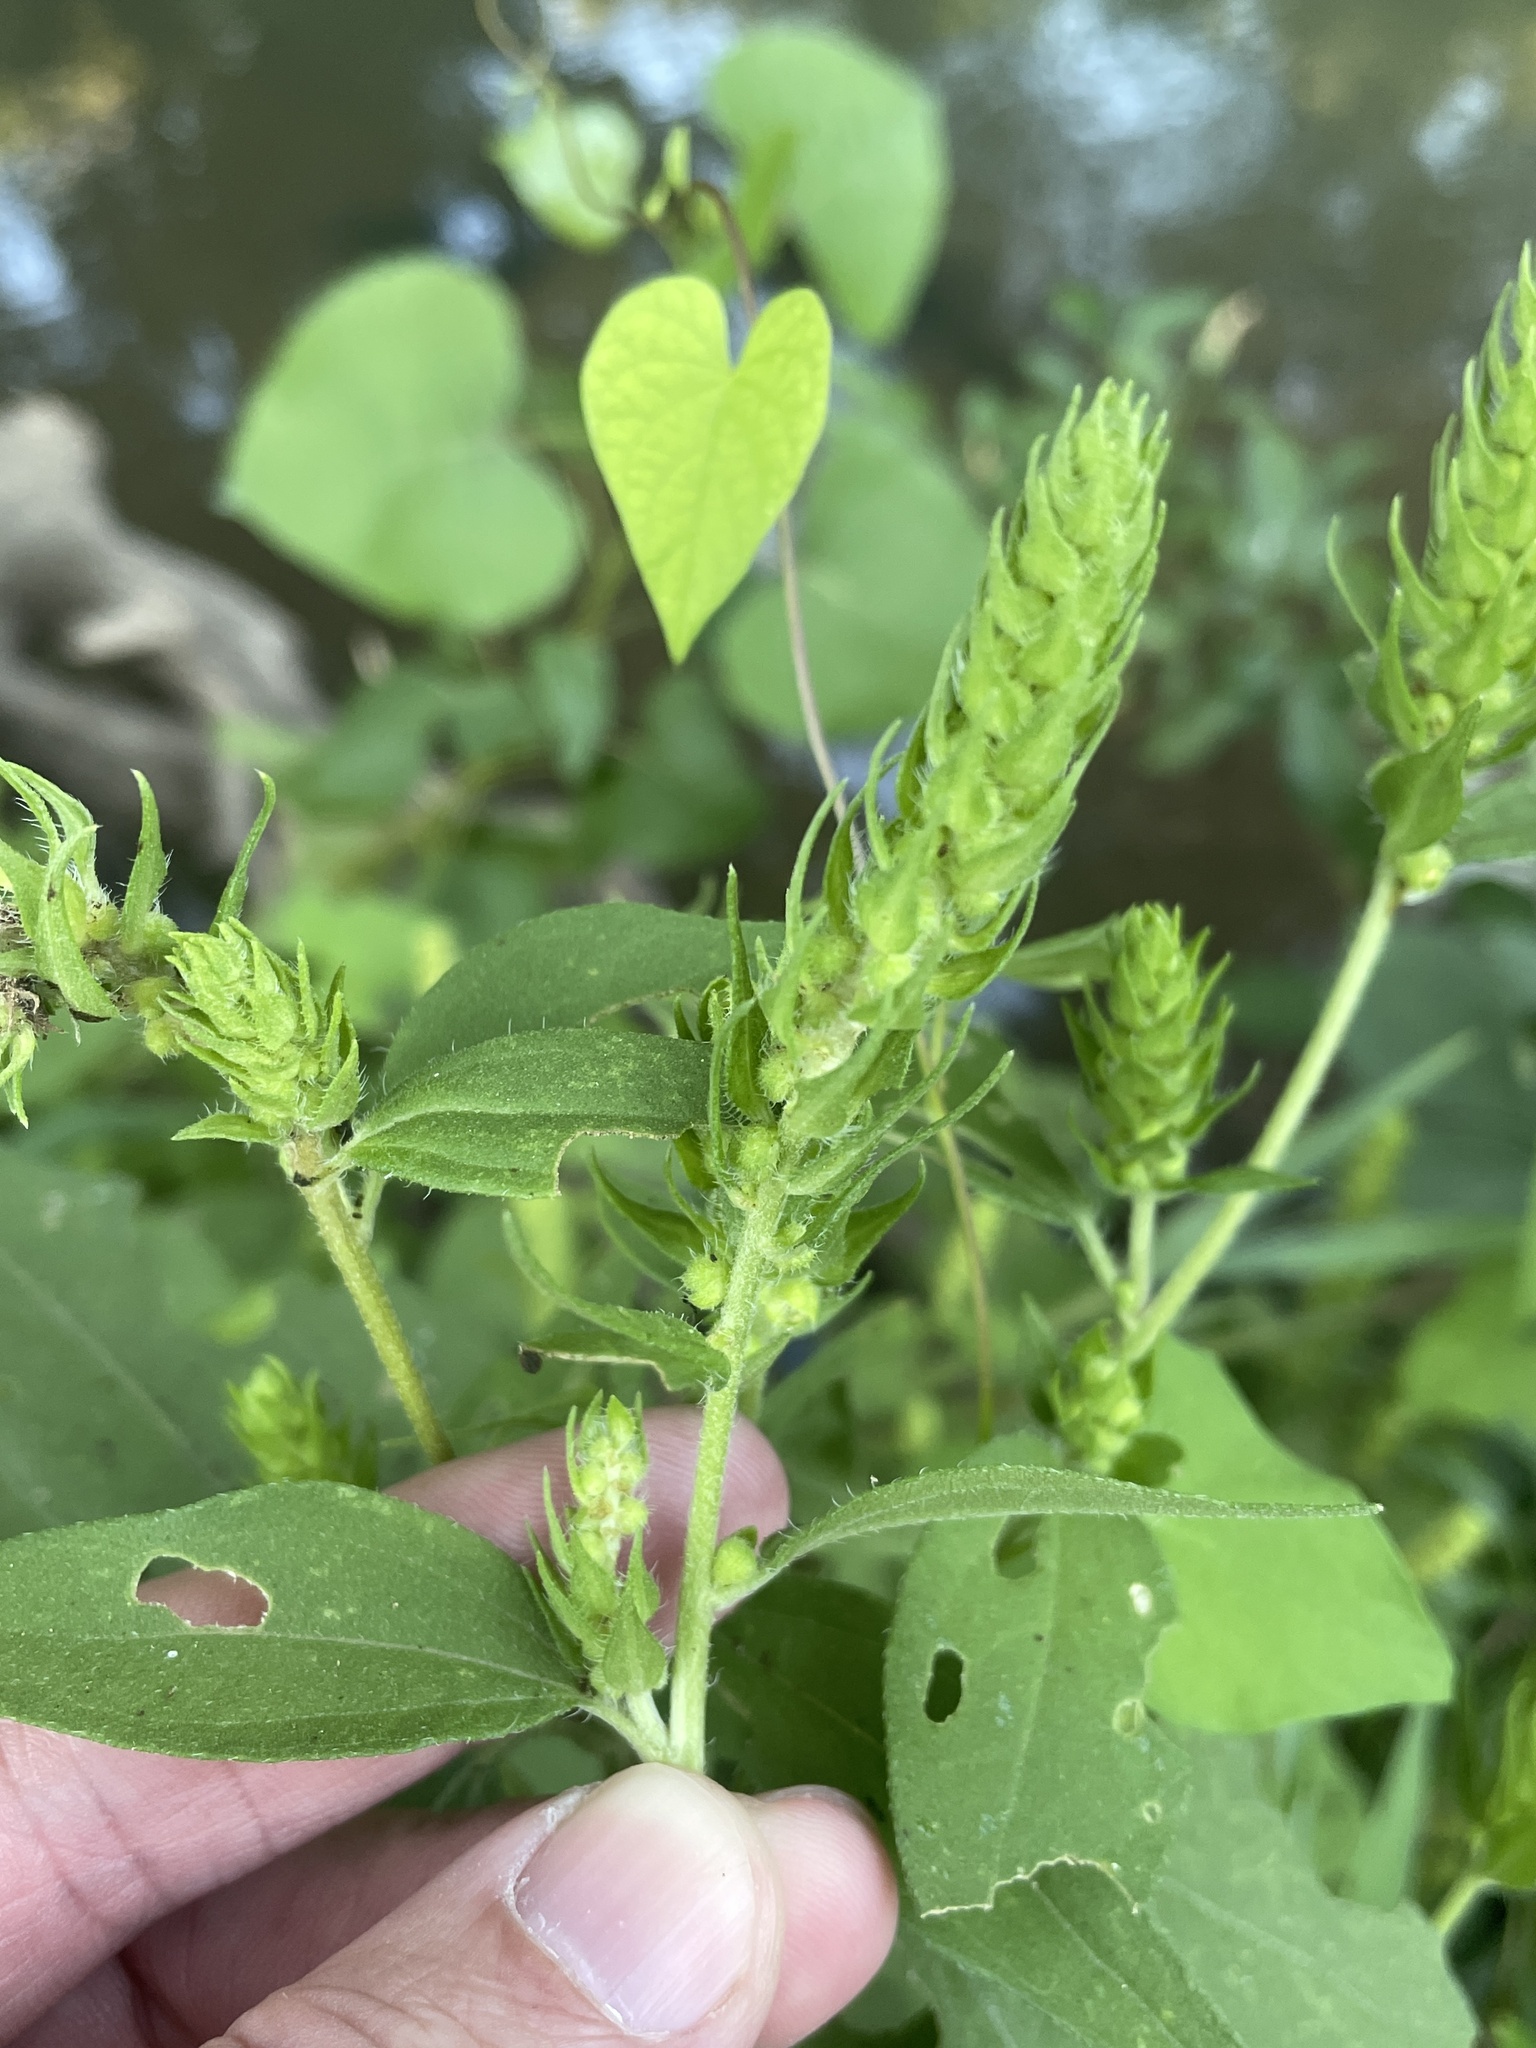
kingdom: Plantae
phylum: Tracheophyta
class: Magnoliopsida
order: Asterales
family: Asteraceae
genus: Iva
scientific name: Iva annua
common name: Marsh-elder
